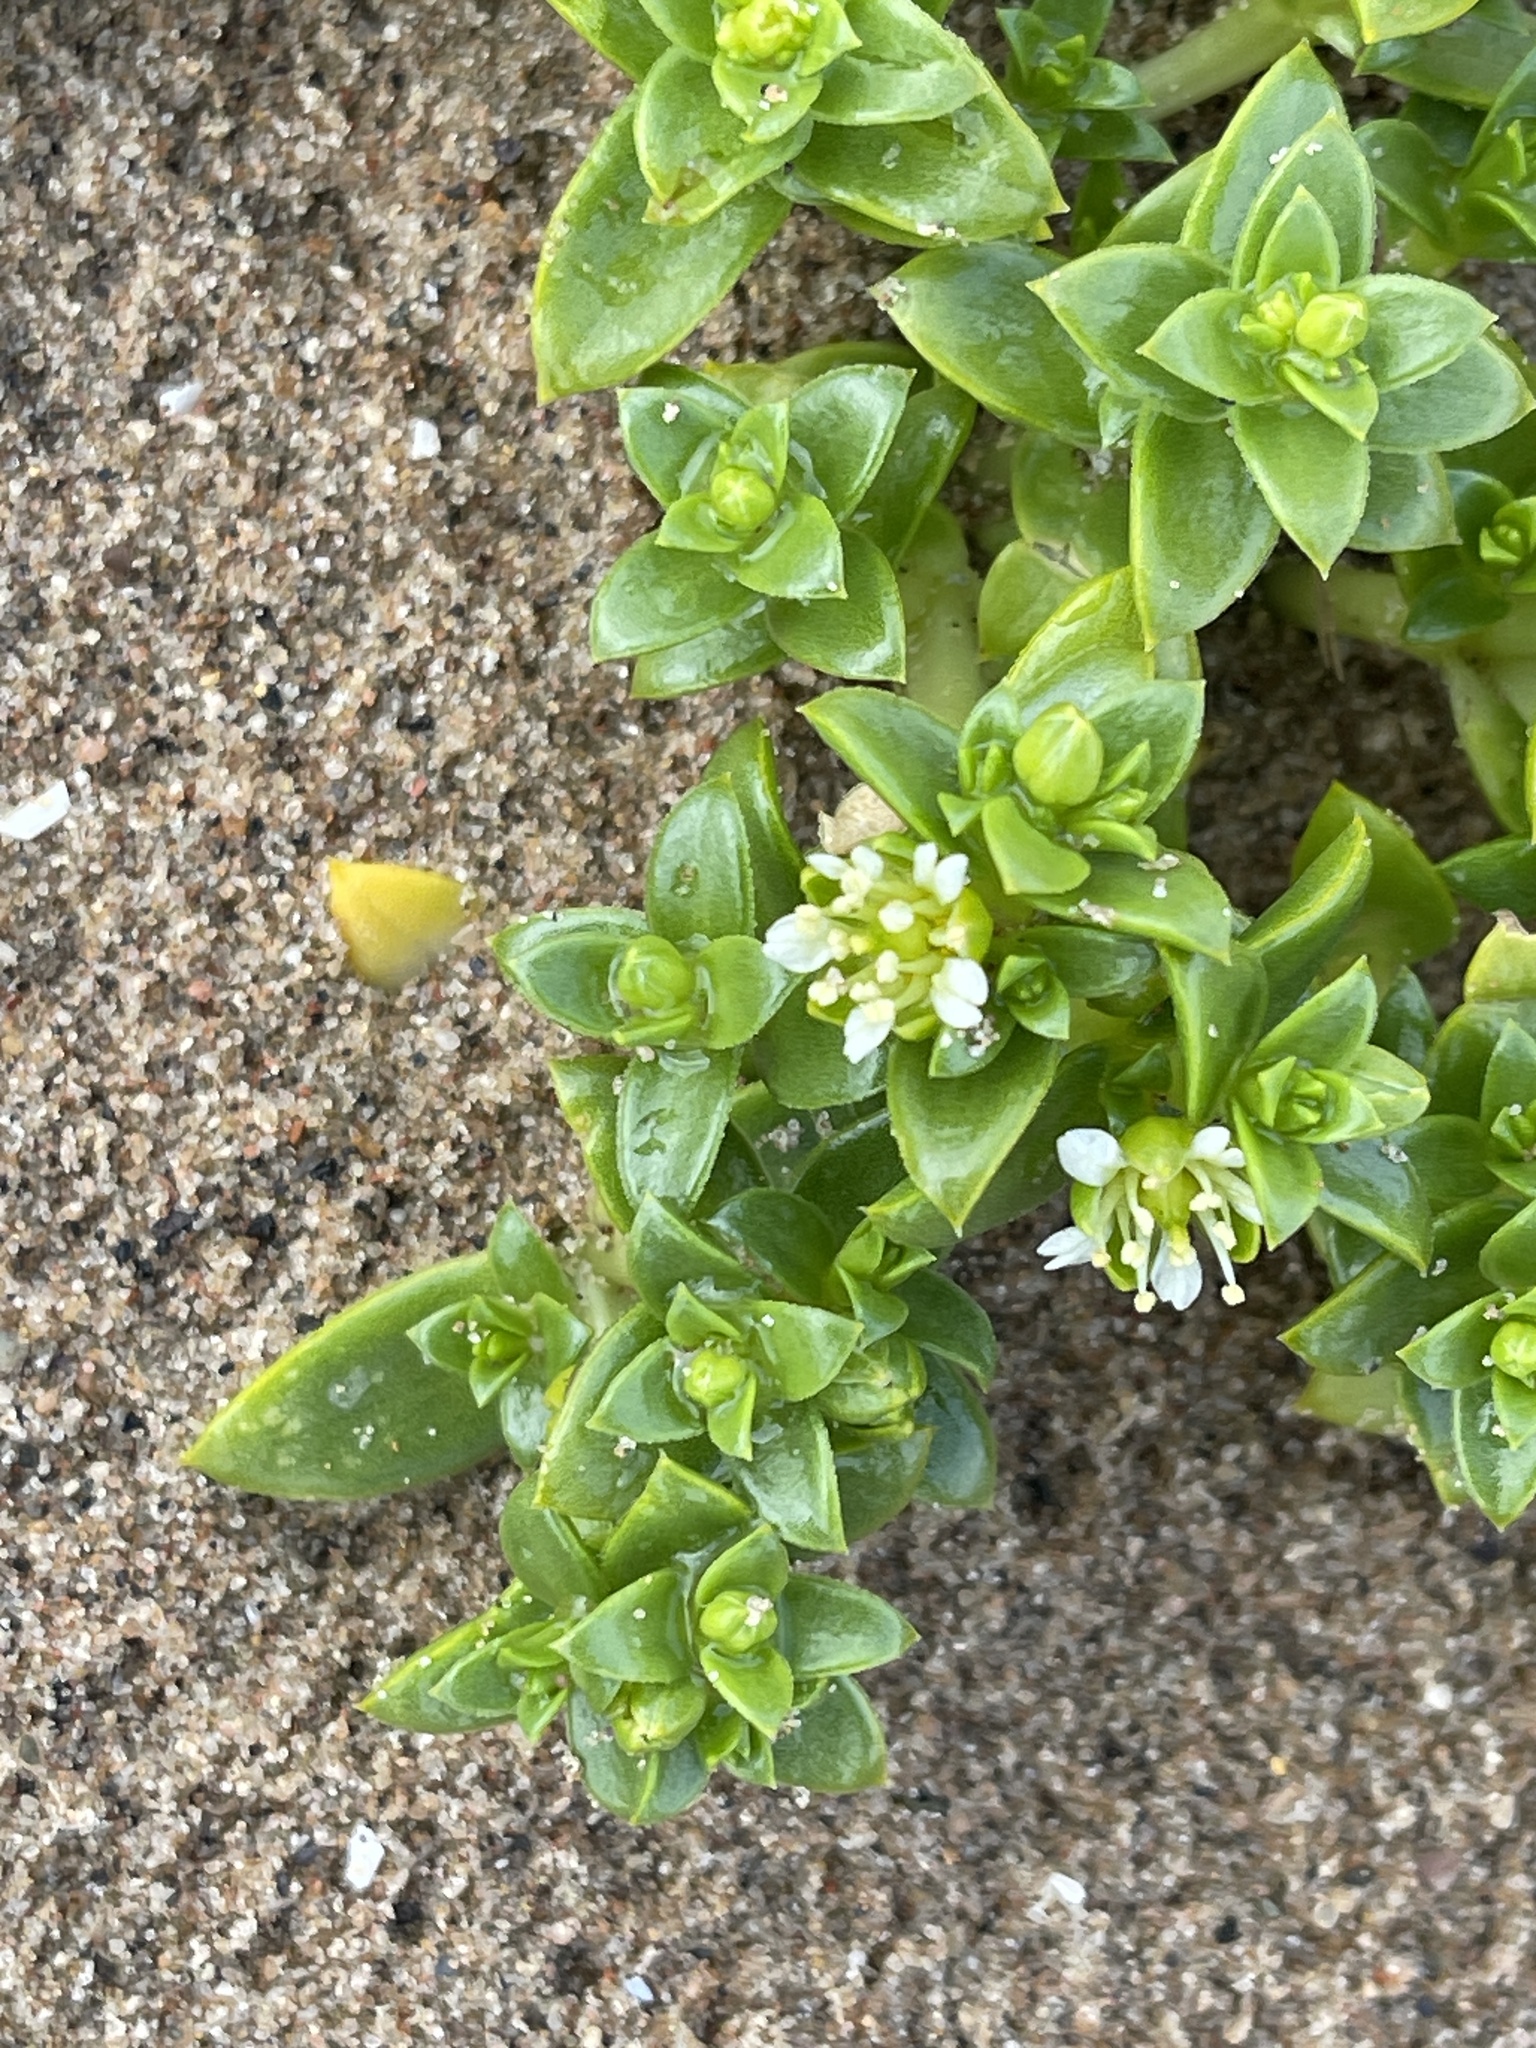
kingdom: Plantae
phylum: Tracheophyta
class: Magnoliopsida
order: Caryophyllales
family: Caryophyllaceae
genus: Honckenya
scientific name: Honckenya peploides
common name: Sea sandwort
